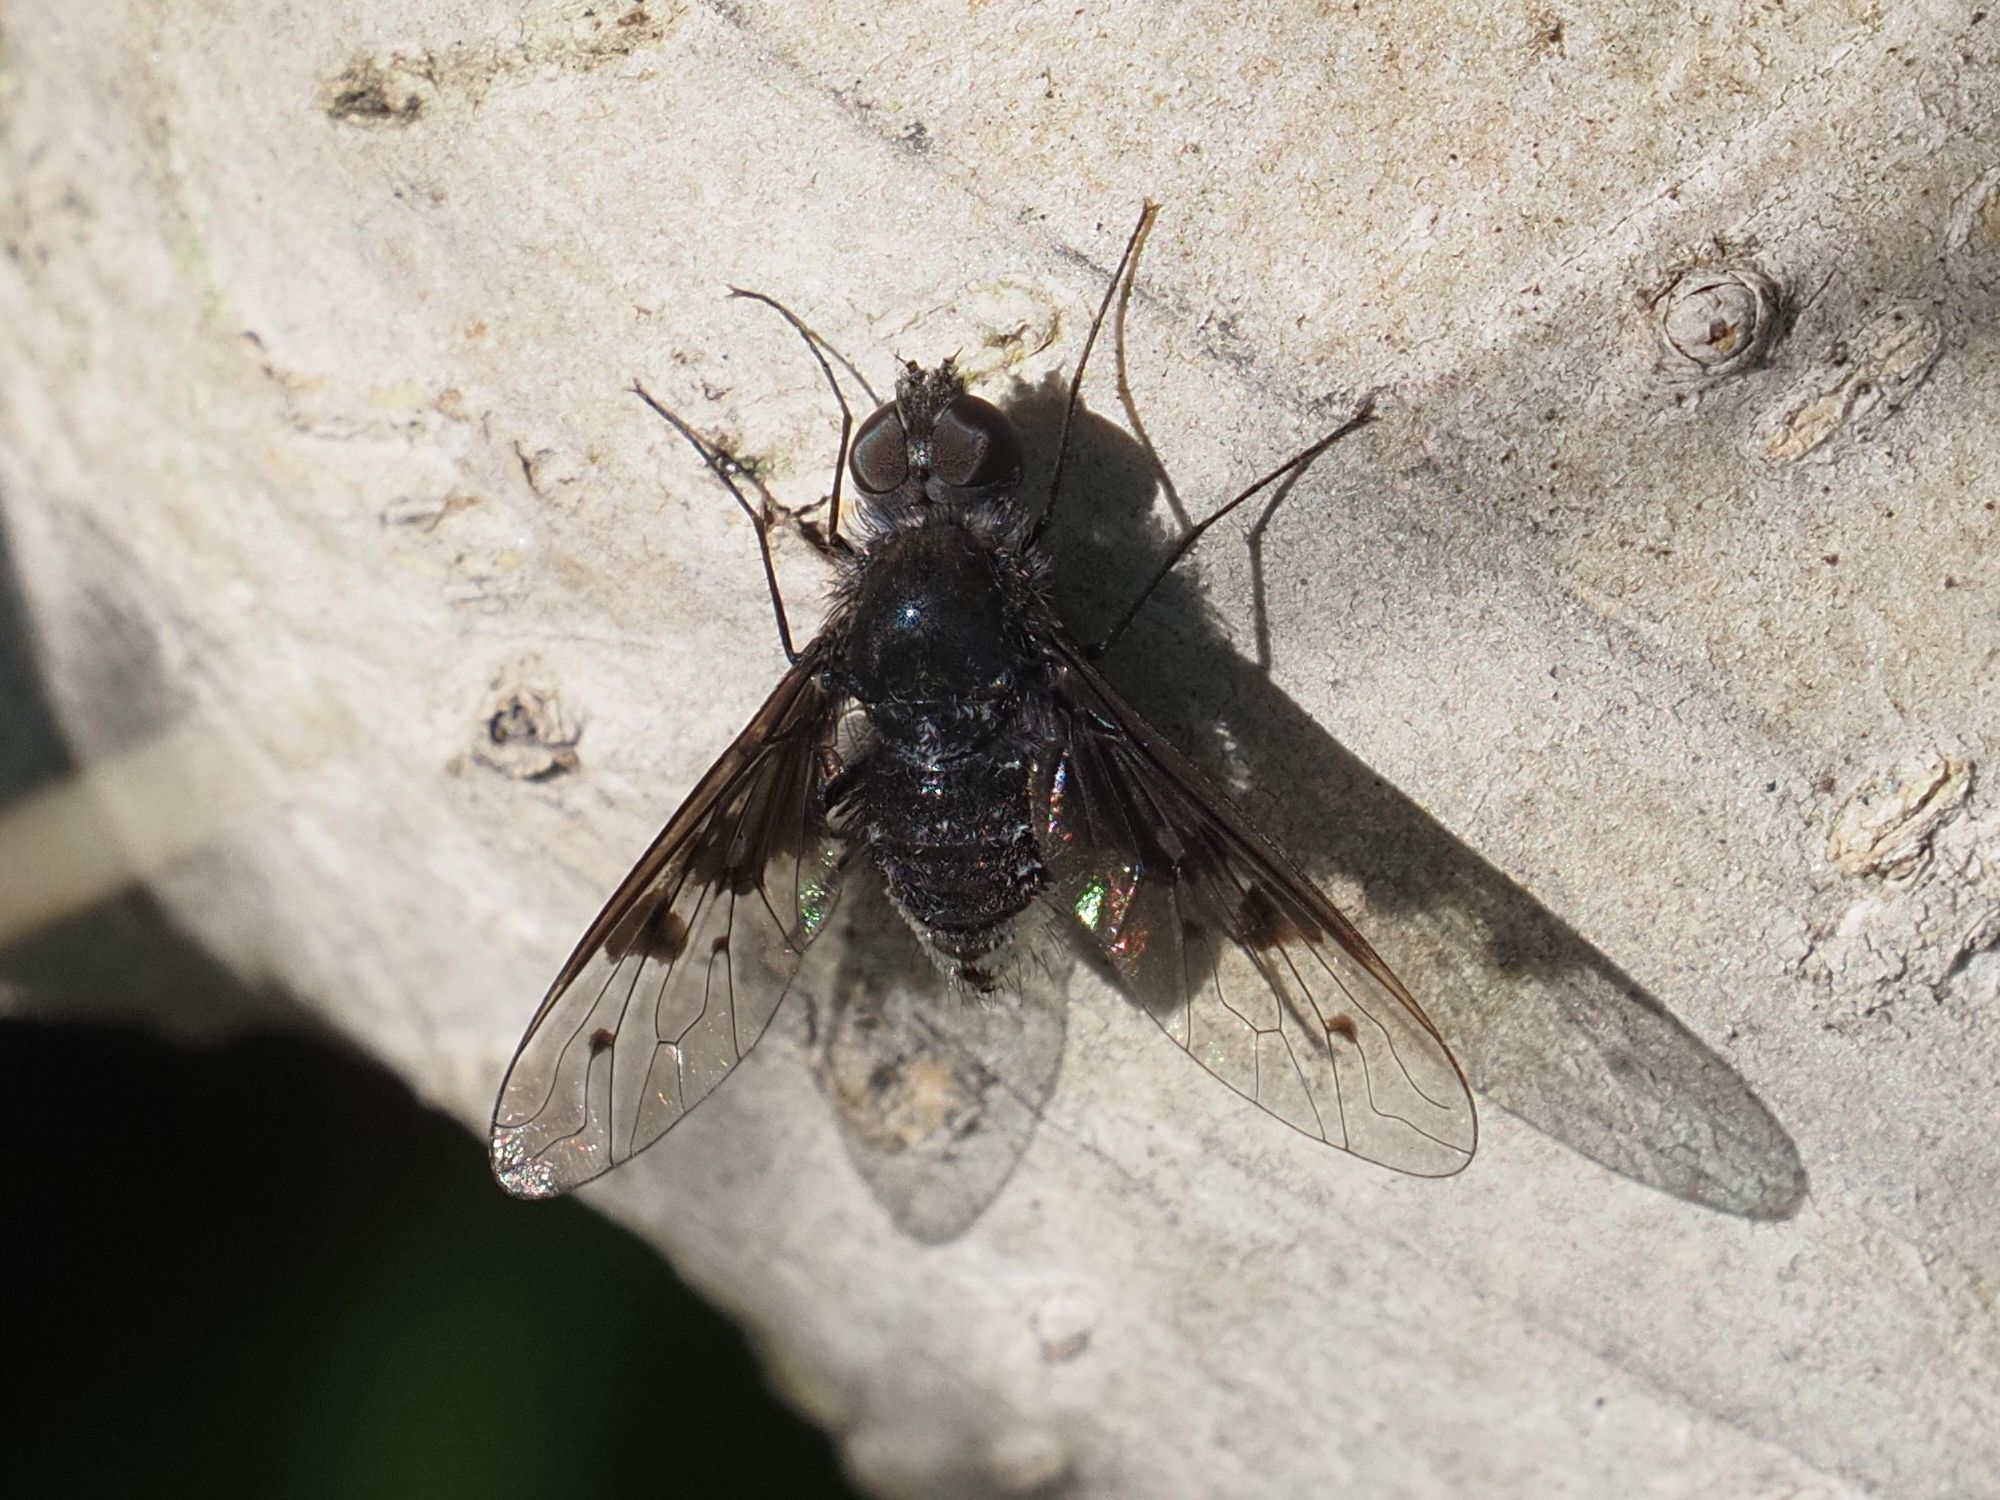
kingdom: Animalia
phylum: Arthropoda
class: Insecta
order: Diptera
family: Bombyliidae
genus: Anthrax
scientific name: Anthrax trifasciatus
